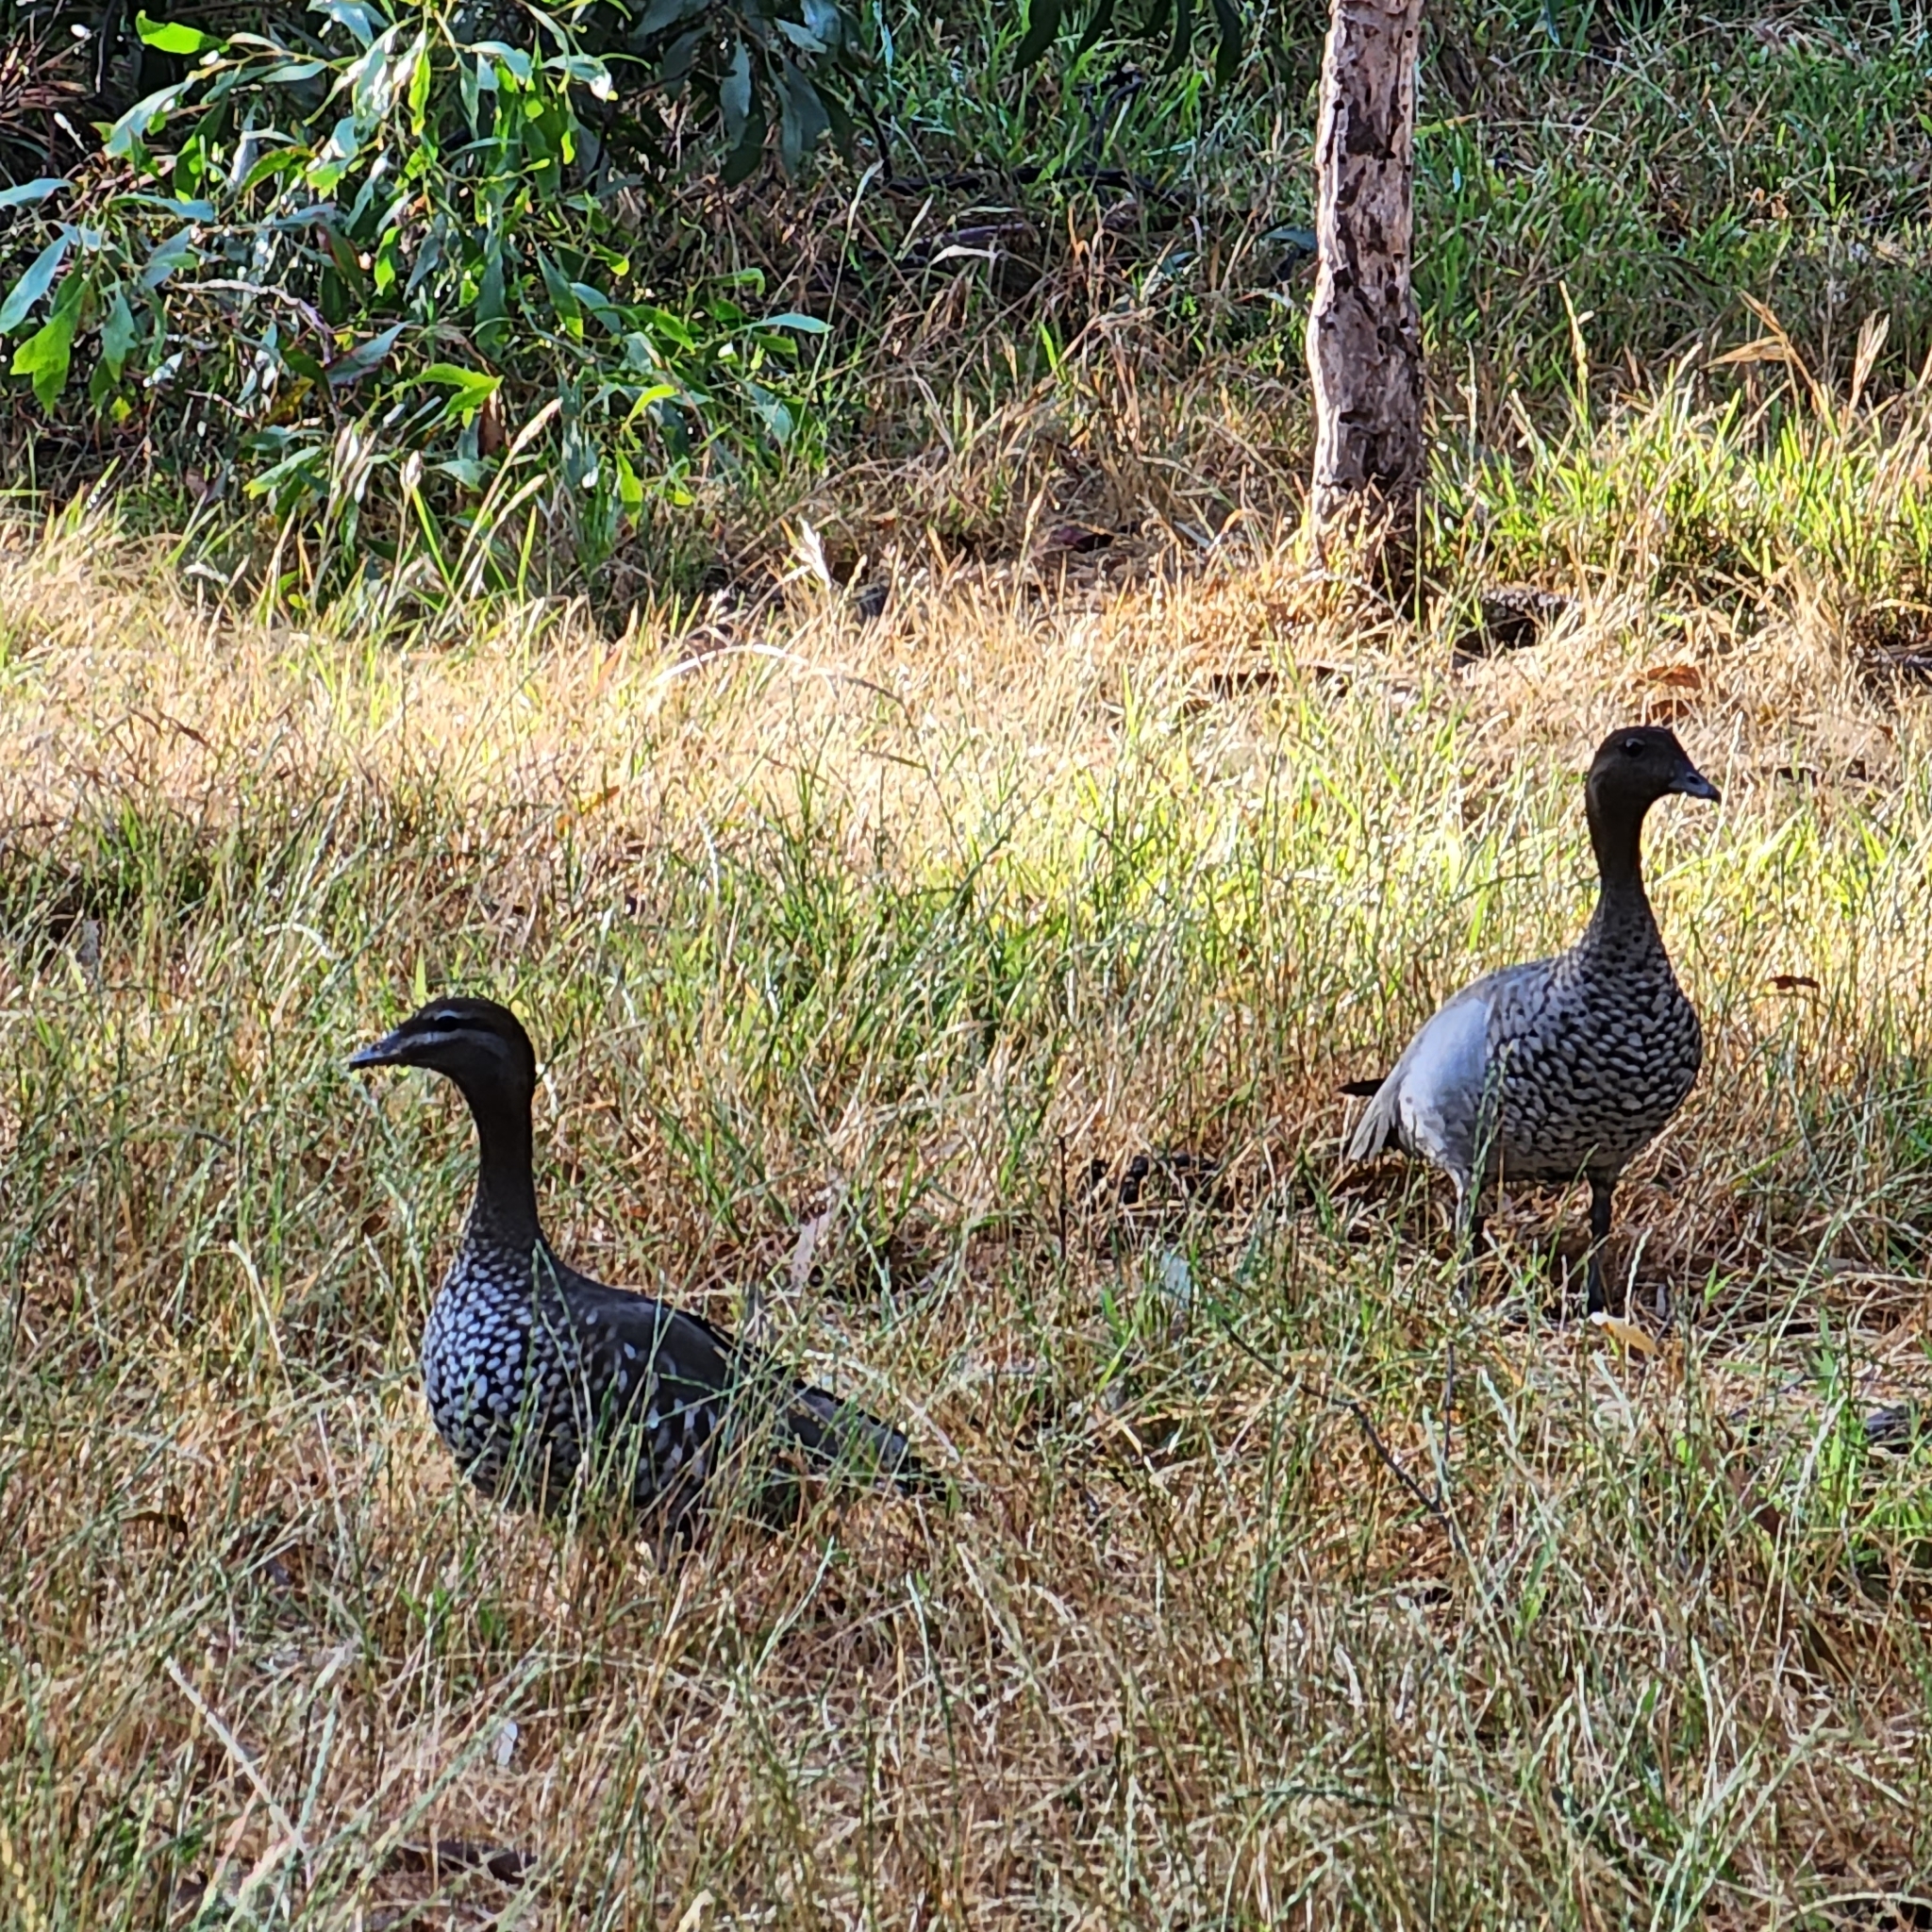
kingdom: Animalia
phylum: Chordata
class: Aves
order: Anseriformes
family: Anatidae
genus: Chenonetta
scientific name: Chenonetta jubata
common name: Maned duck
